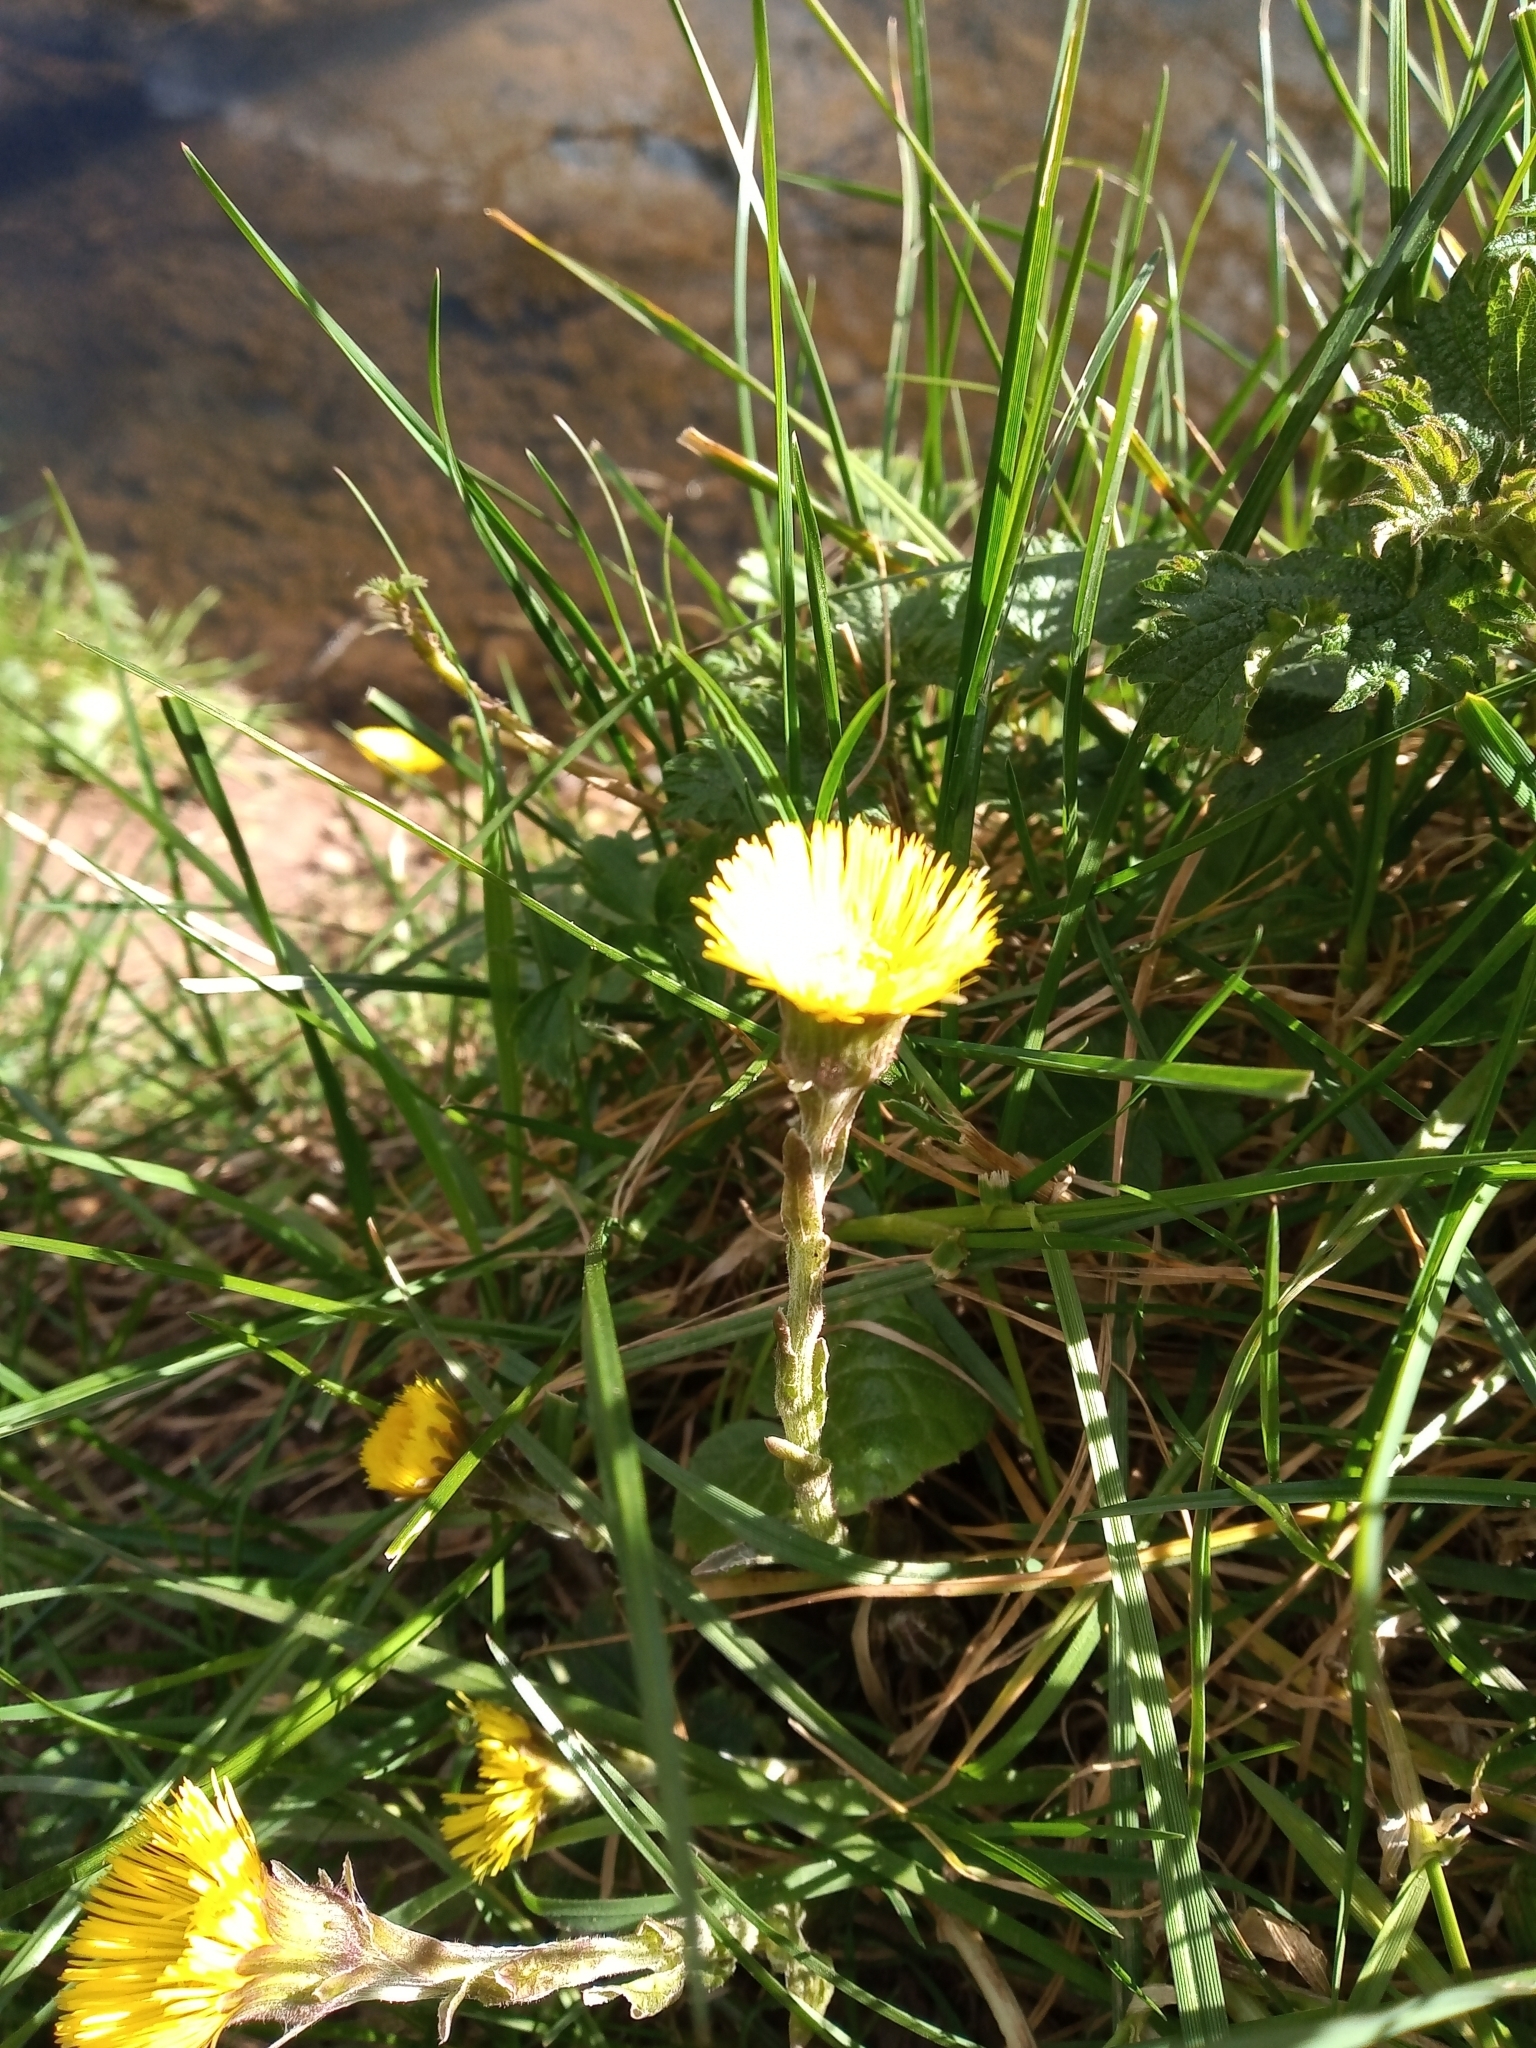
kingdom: Plantae
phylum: Tracheophyta
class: Magnoliopsida
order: Asterales
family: Asteraceae
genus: Tussilago
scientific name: Tussilago farfara
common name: Coltsfoot
